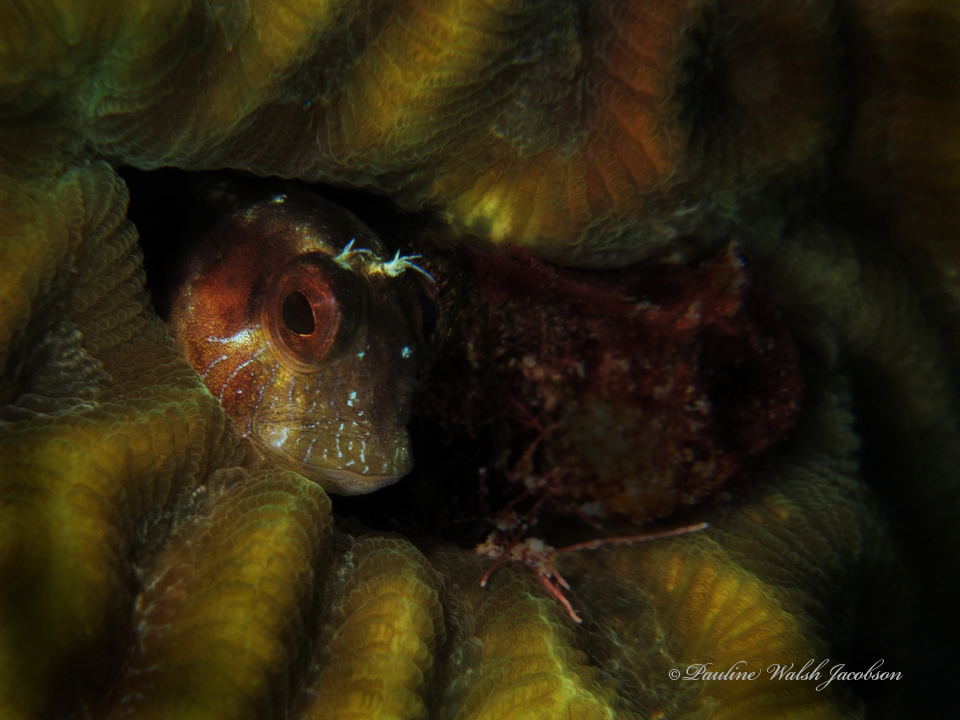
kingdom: Animalia
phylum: Chordata
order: Perciformes
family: Blenniidae
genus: Parablennius
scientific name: Parablennius marmoreus
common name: Seaweed blenny
